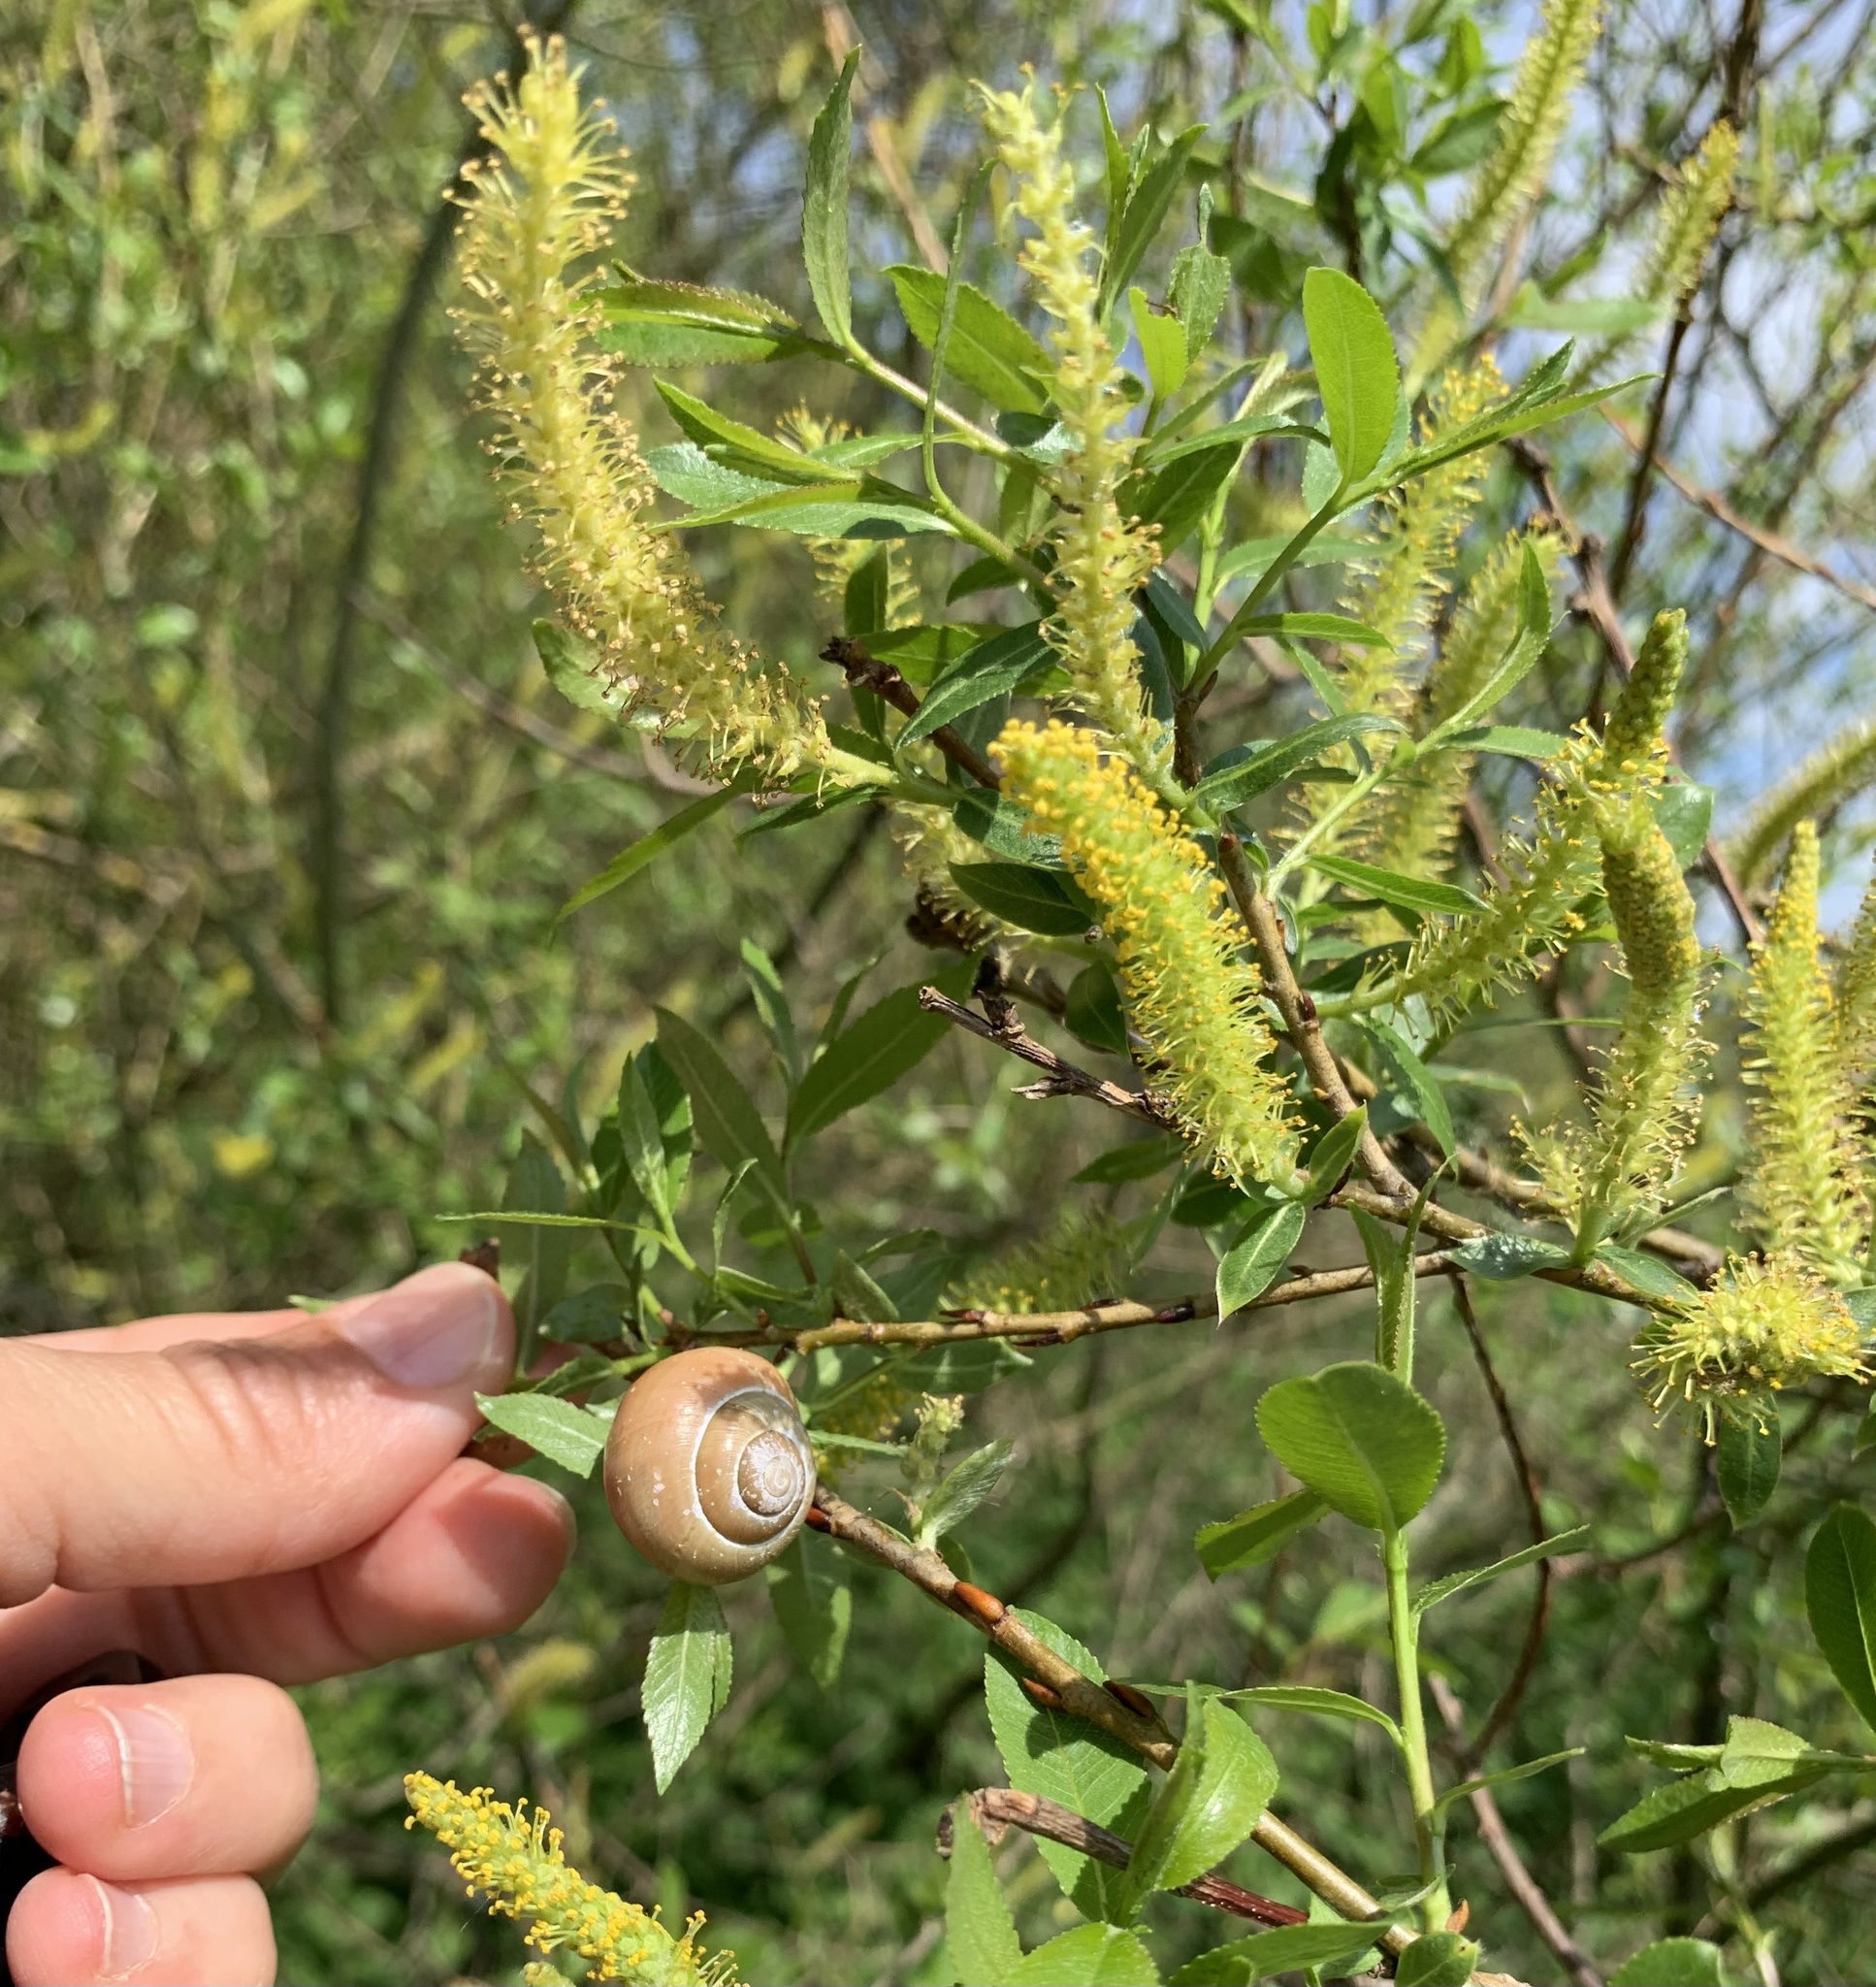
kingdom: Animalia
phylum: Mollusca
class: Gastropoda
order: Stylommatophora
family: Helicidae
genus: Cepaea
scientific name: Cepaea nemoralis
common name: Grovesnail
